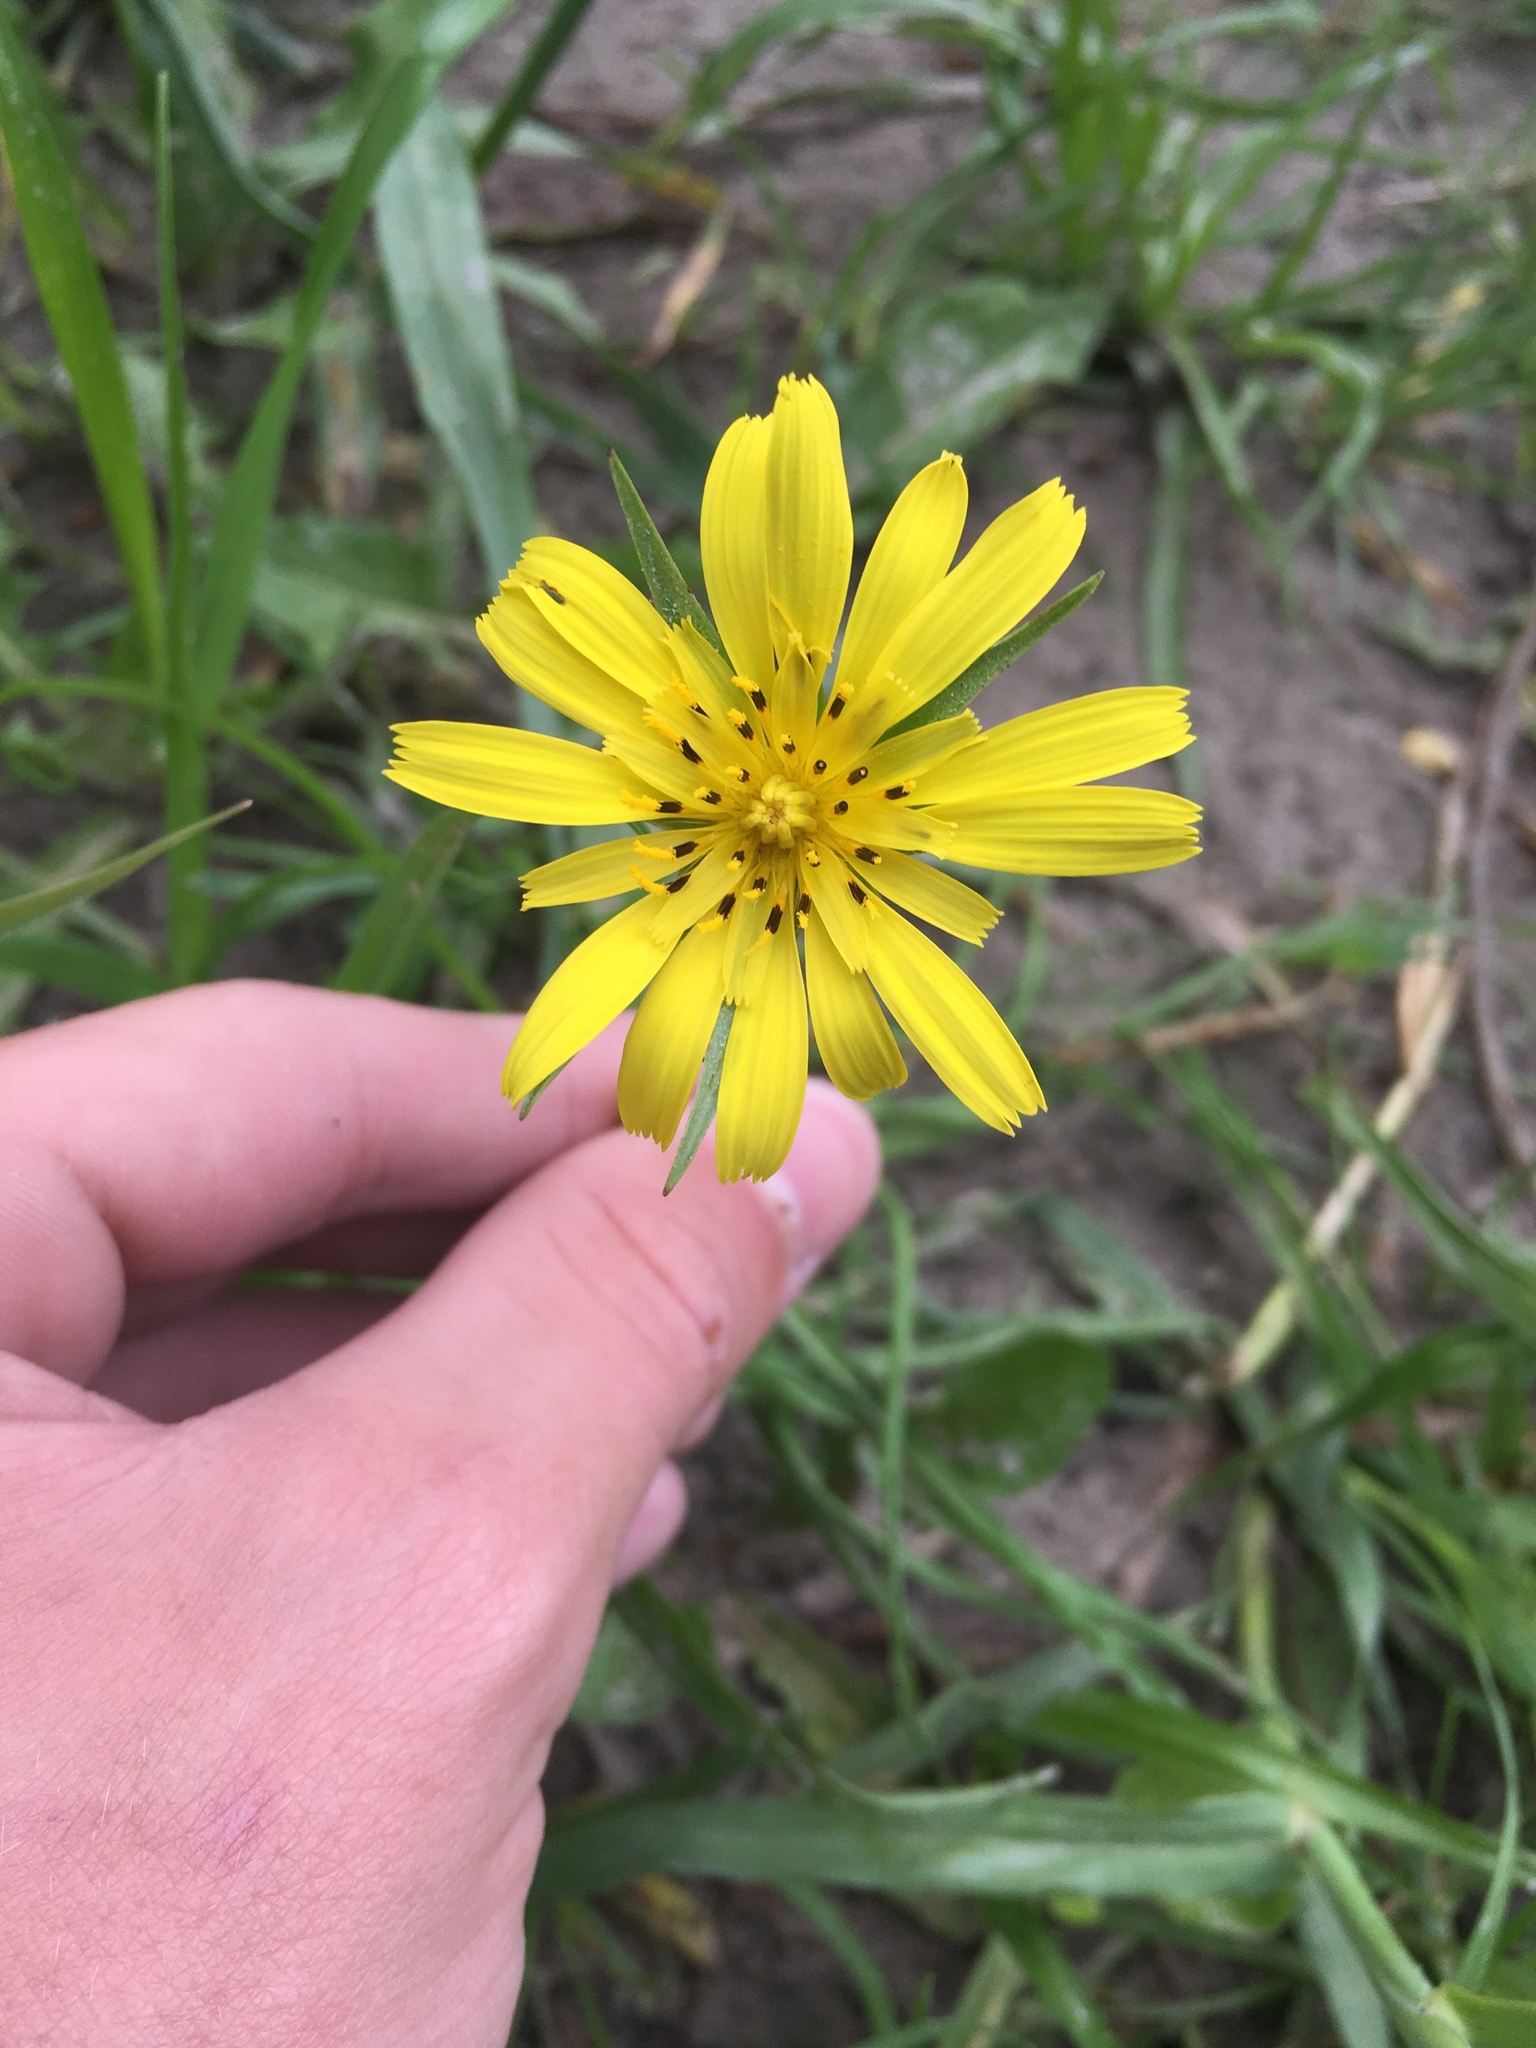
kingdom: Plantae
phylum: Tracheophyta
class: Magnoliopsida
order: Asterales
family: Asteraceae
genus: Tragopogon
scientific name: Tragopogon pratensis
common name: Goat's-beard
